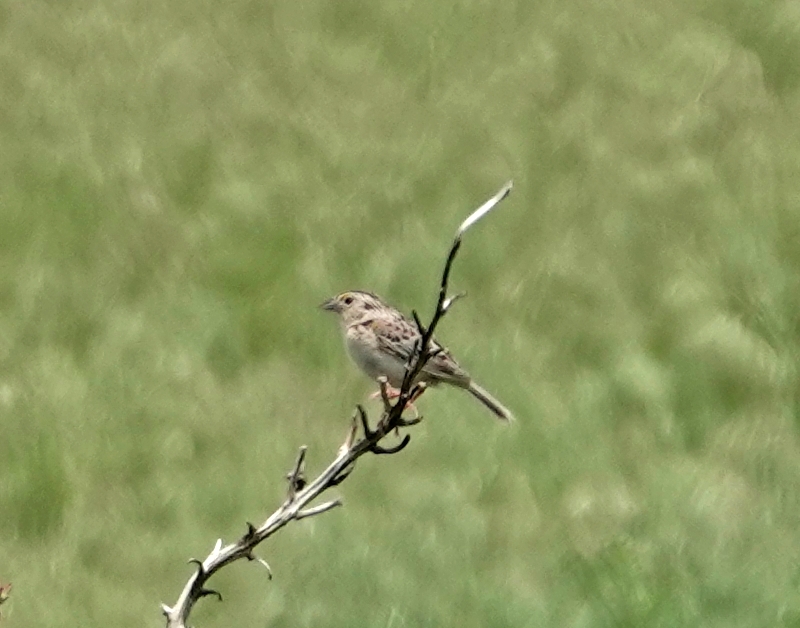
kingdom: Animalia
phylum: Chordata
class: Aves
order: Passeriformes
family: Passerellidae
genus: Ammodramus
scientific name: Ammodramus savannarum
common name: Grasshopper sparrow
